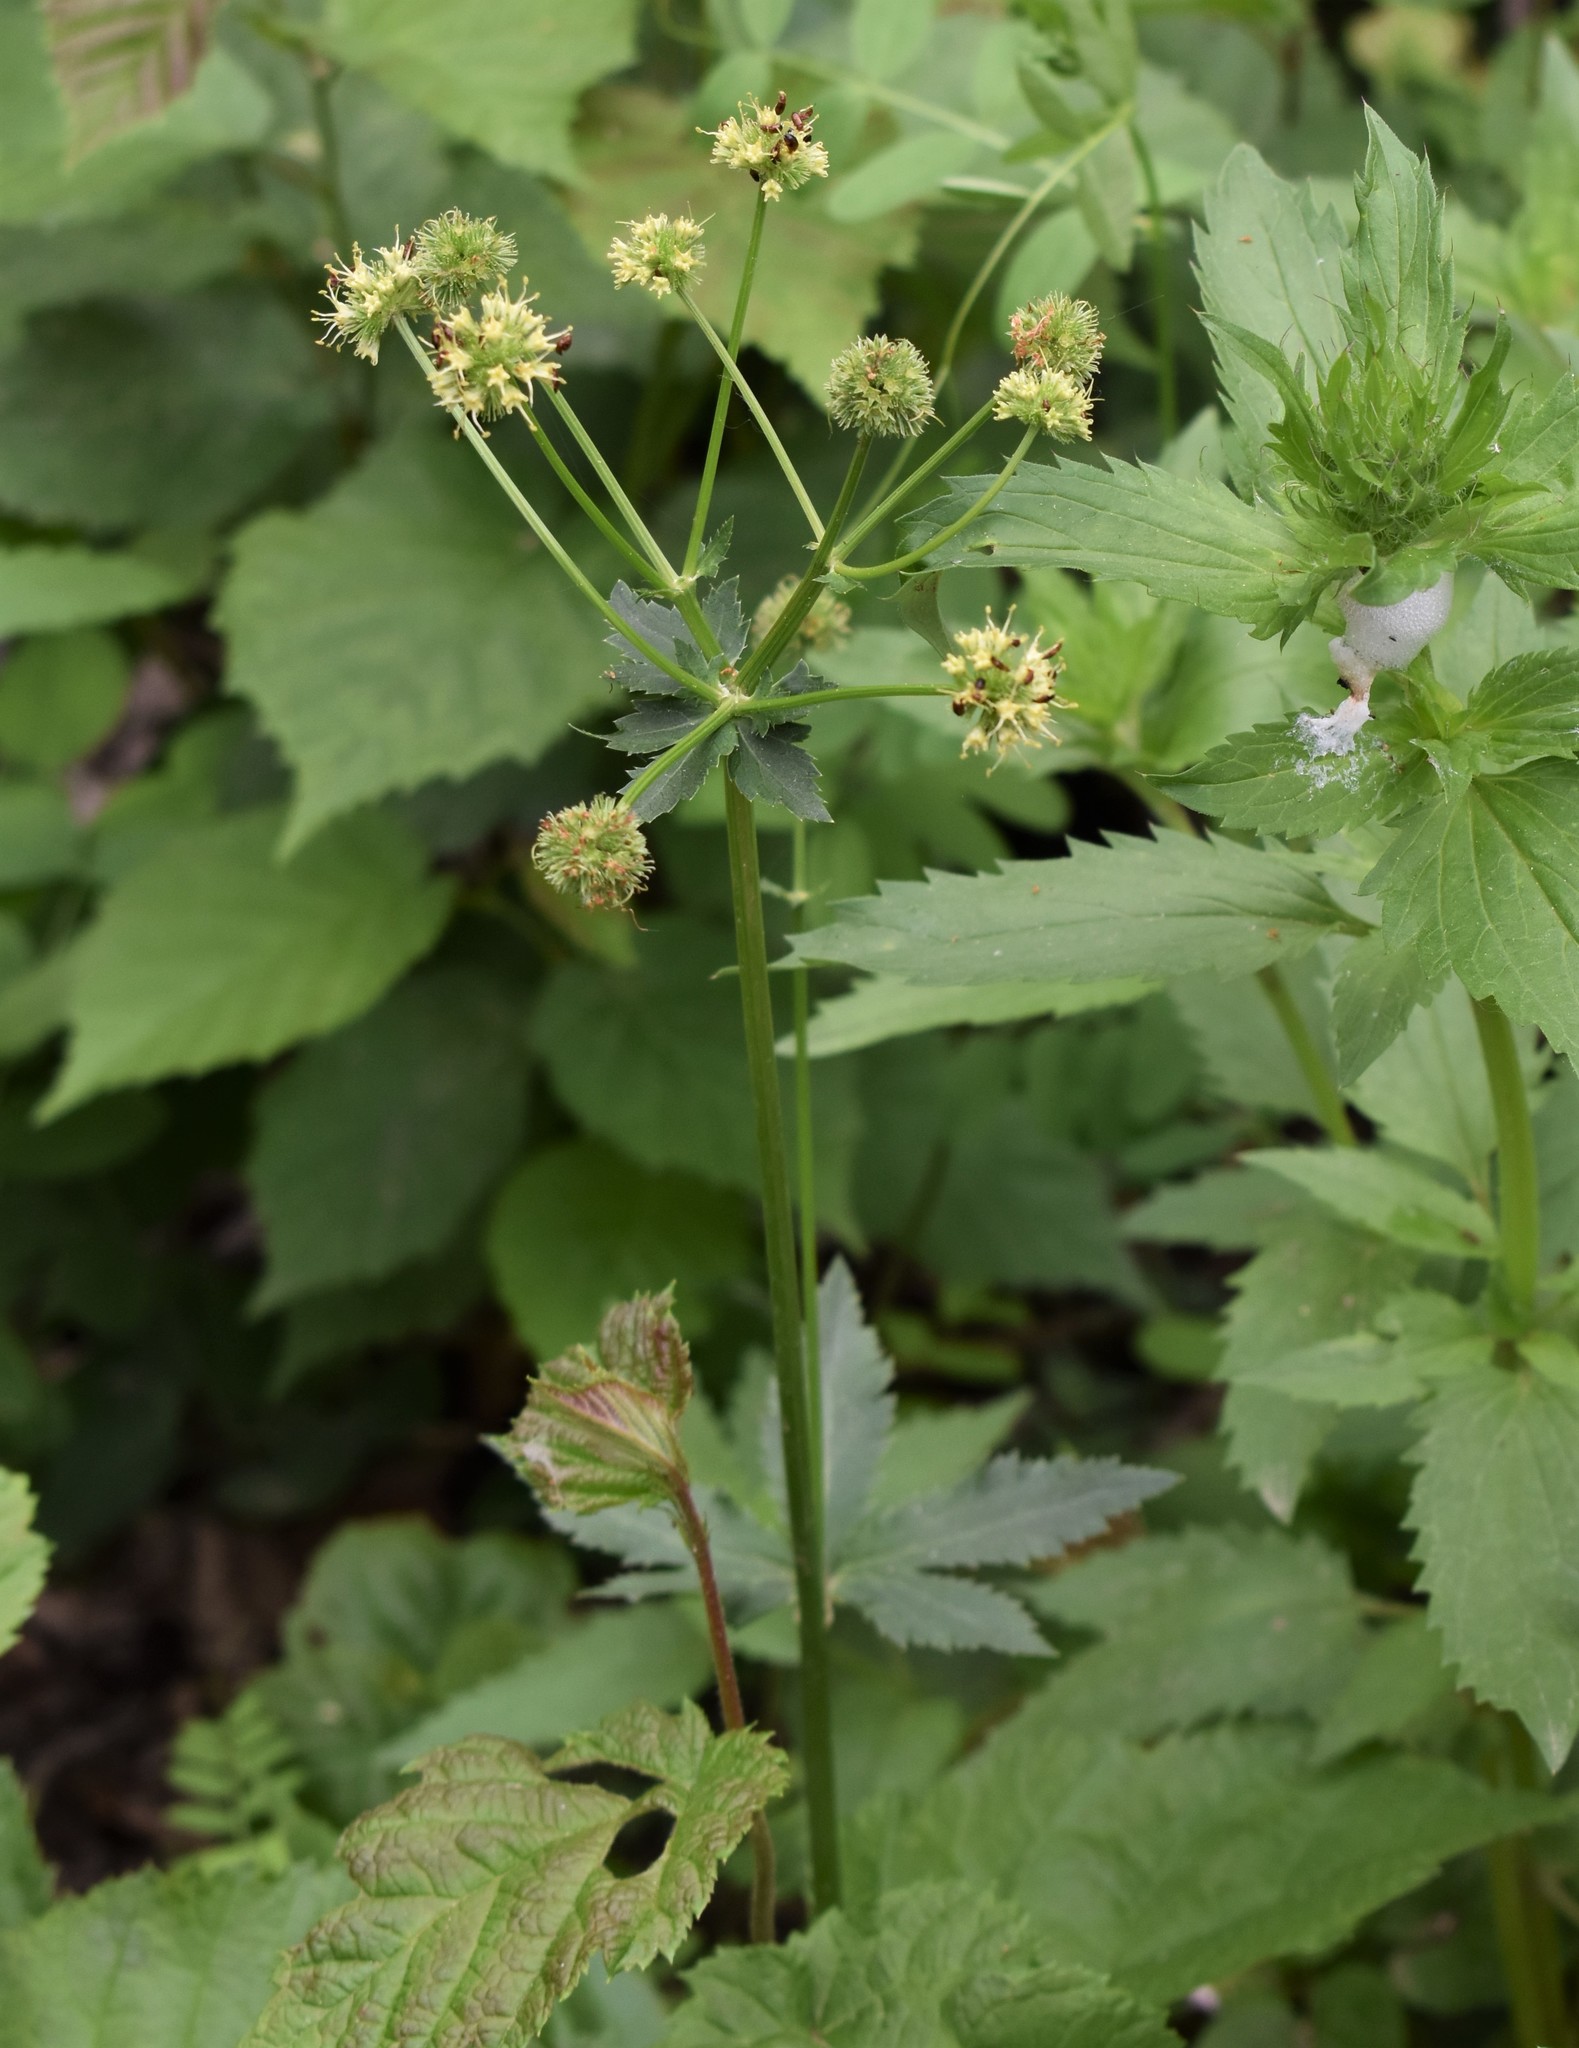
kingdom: Plantae
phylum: Tracheophyta
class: Magnoliopsida
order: Apiales
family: Apiaceae
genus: Sanicula
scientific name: Sanicula marilandica
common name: Black snakeroot
